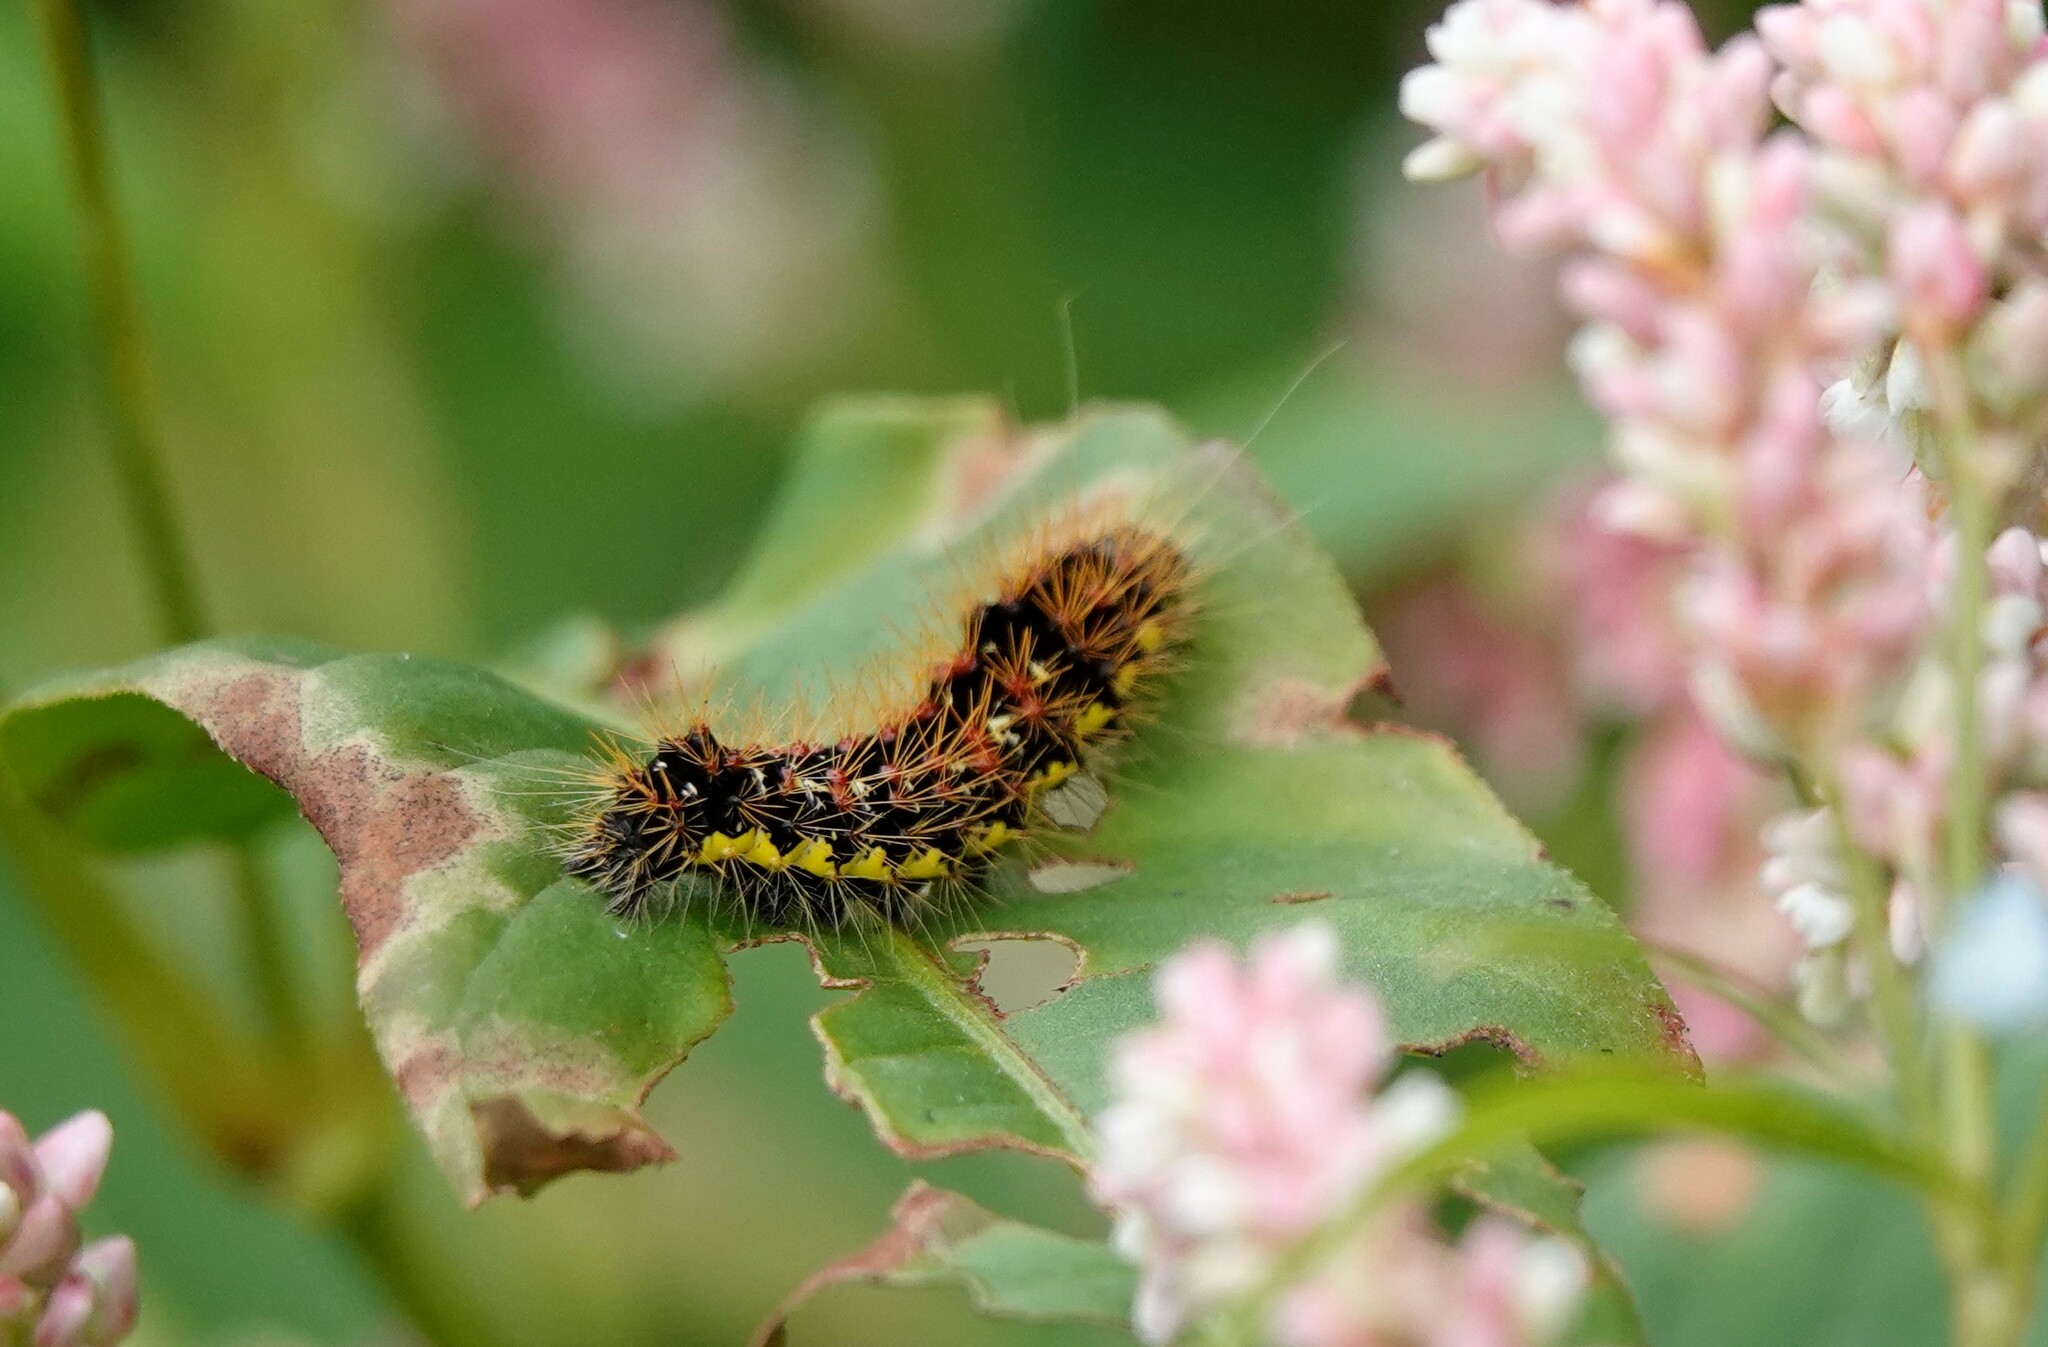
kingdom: Animalia
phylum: Arthropoda
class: Insecta
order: Lepidoptera
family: Noctuidae
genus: Acronicta
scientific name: Acronicta oblinita
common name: Smeared dagger
